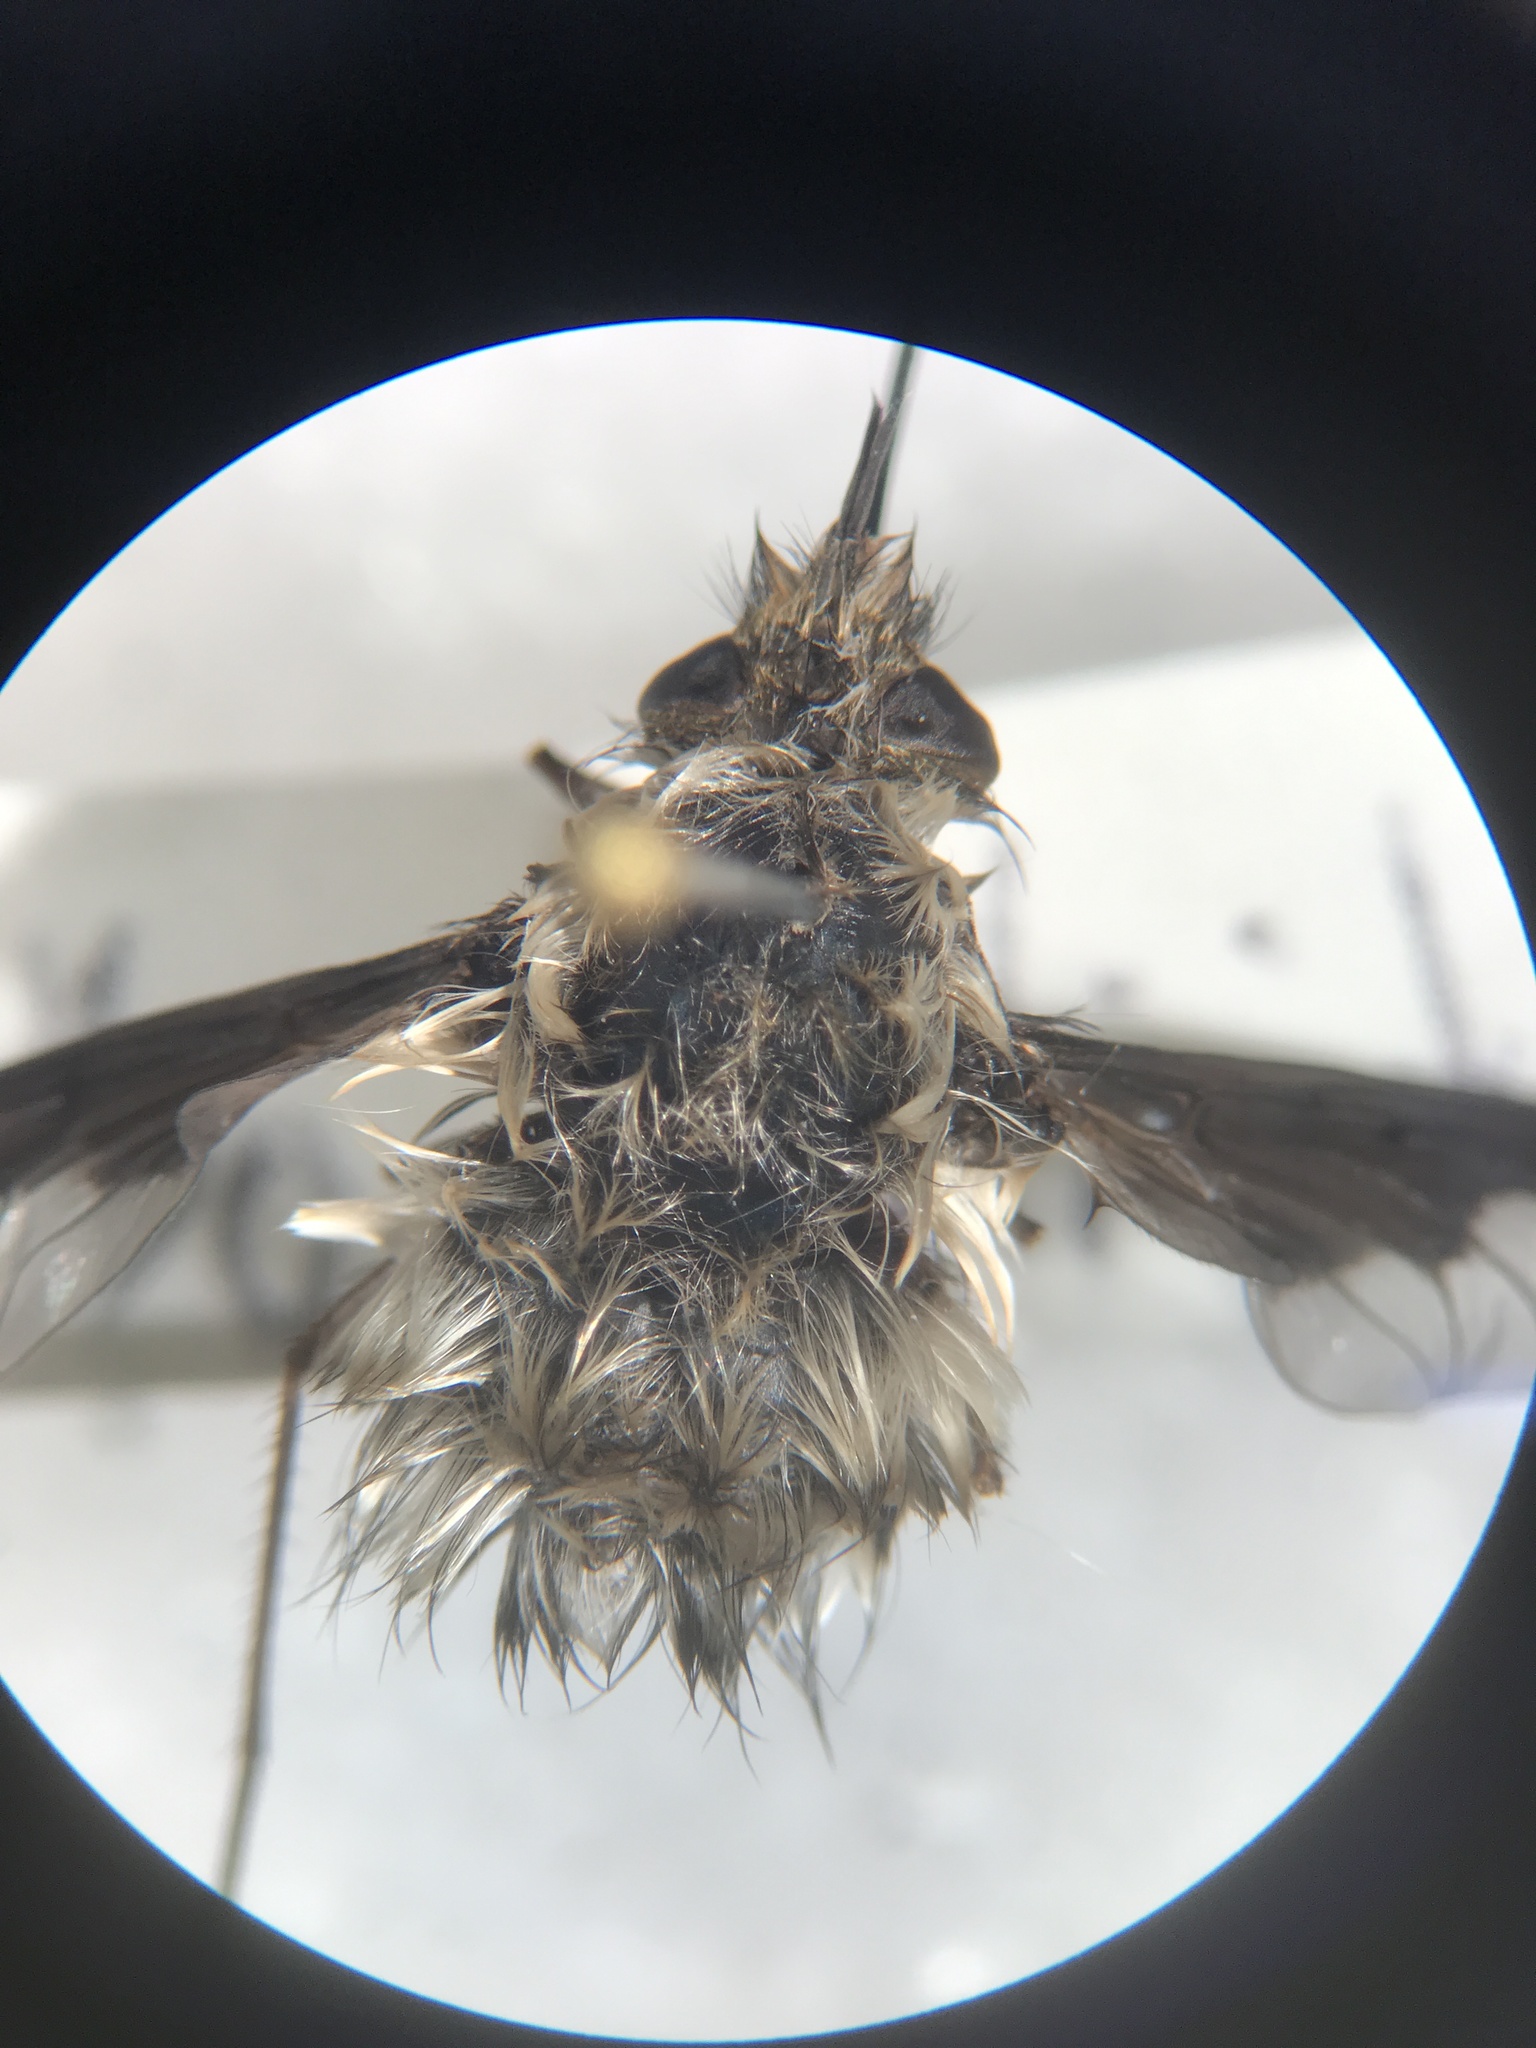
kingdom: Animalia
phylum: Arthropoda
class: Insecta
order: Diptera
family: Bombyliidae
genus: Bombylius
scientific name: Bombylius
